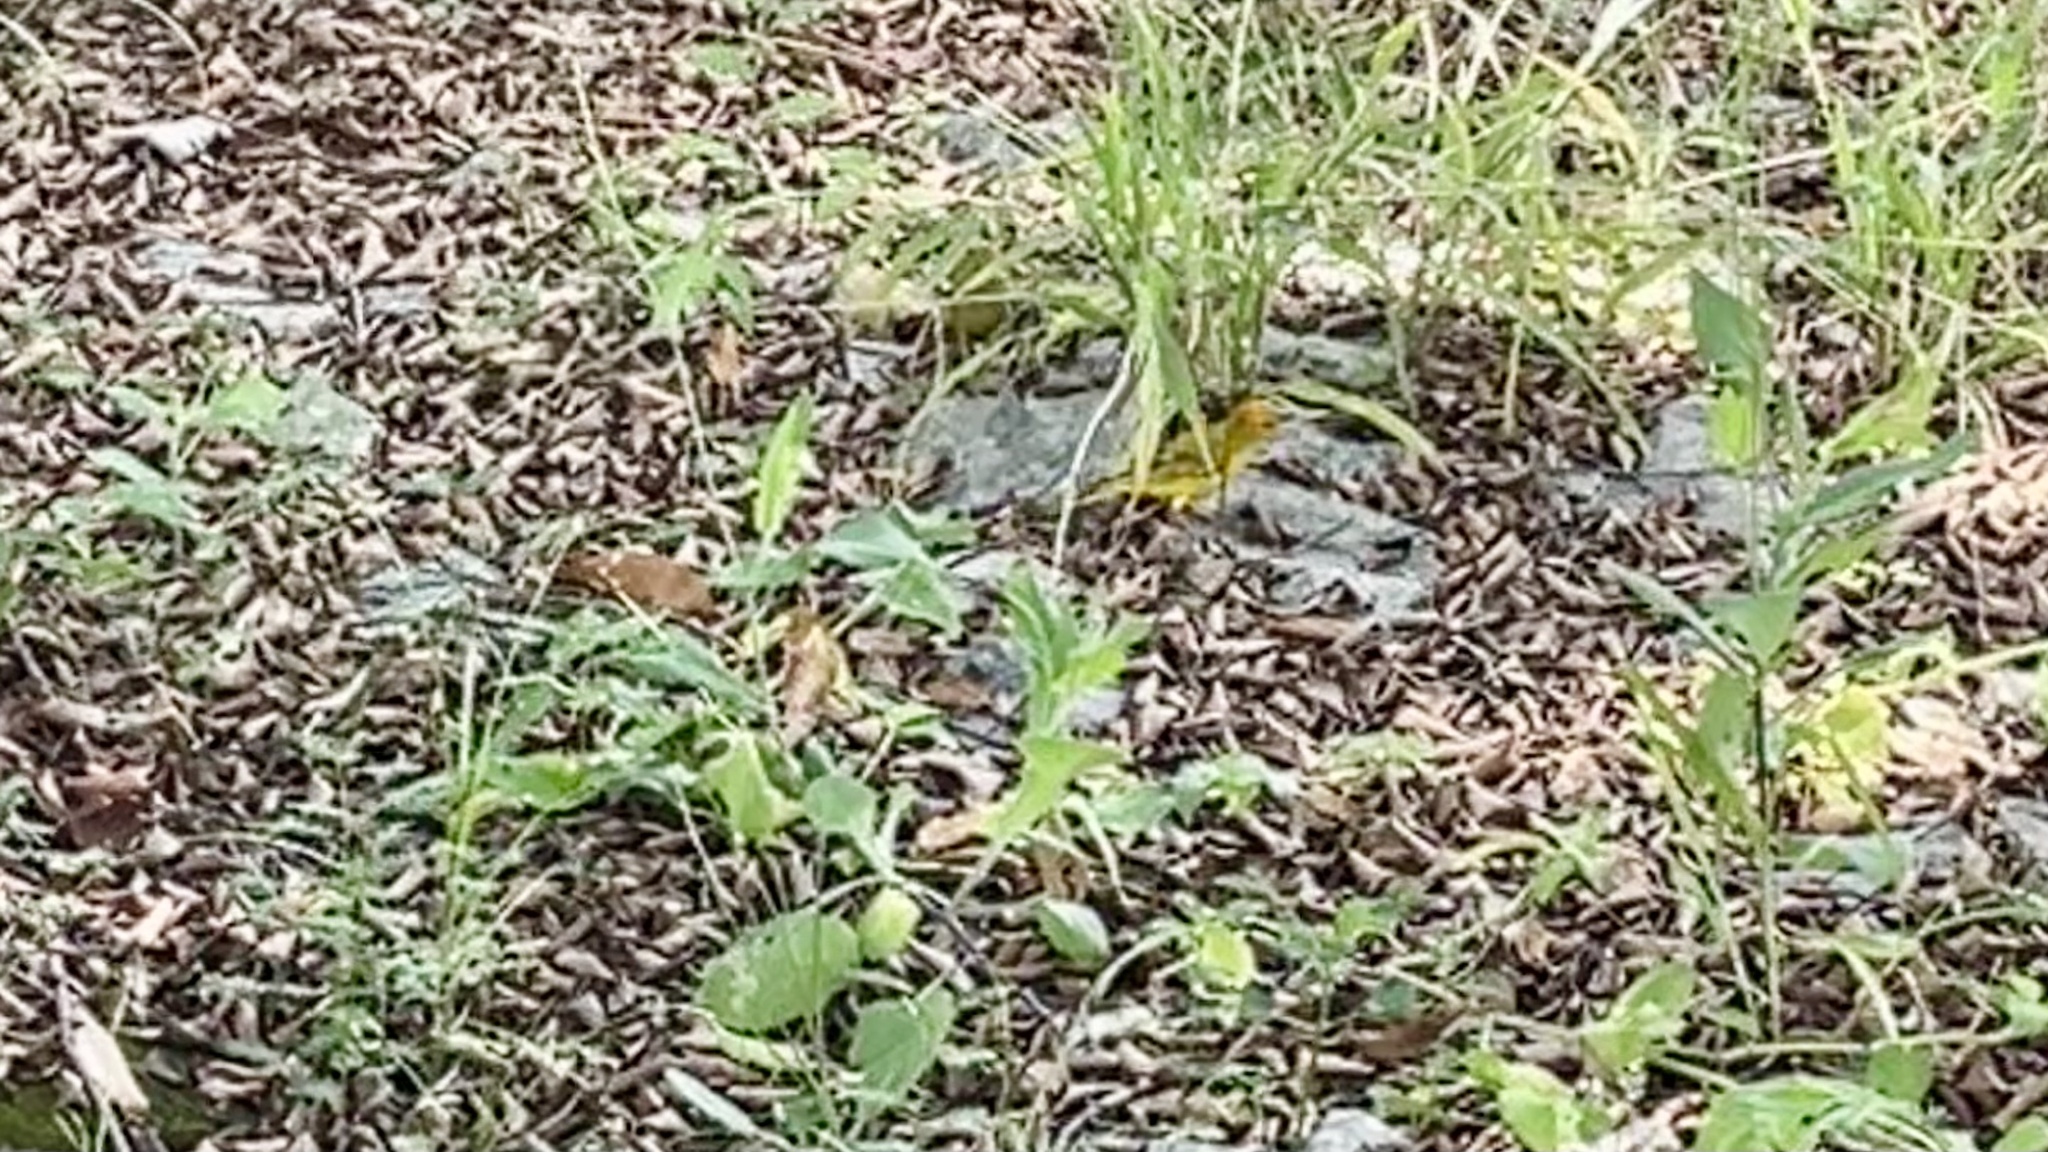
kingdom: Animalia
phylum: Chordata
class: Aves
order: Passeriformes
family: Thraupidae
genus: Sicalis
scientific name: Sicalis flaveola
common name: Saffron finch
